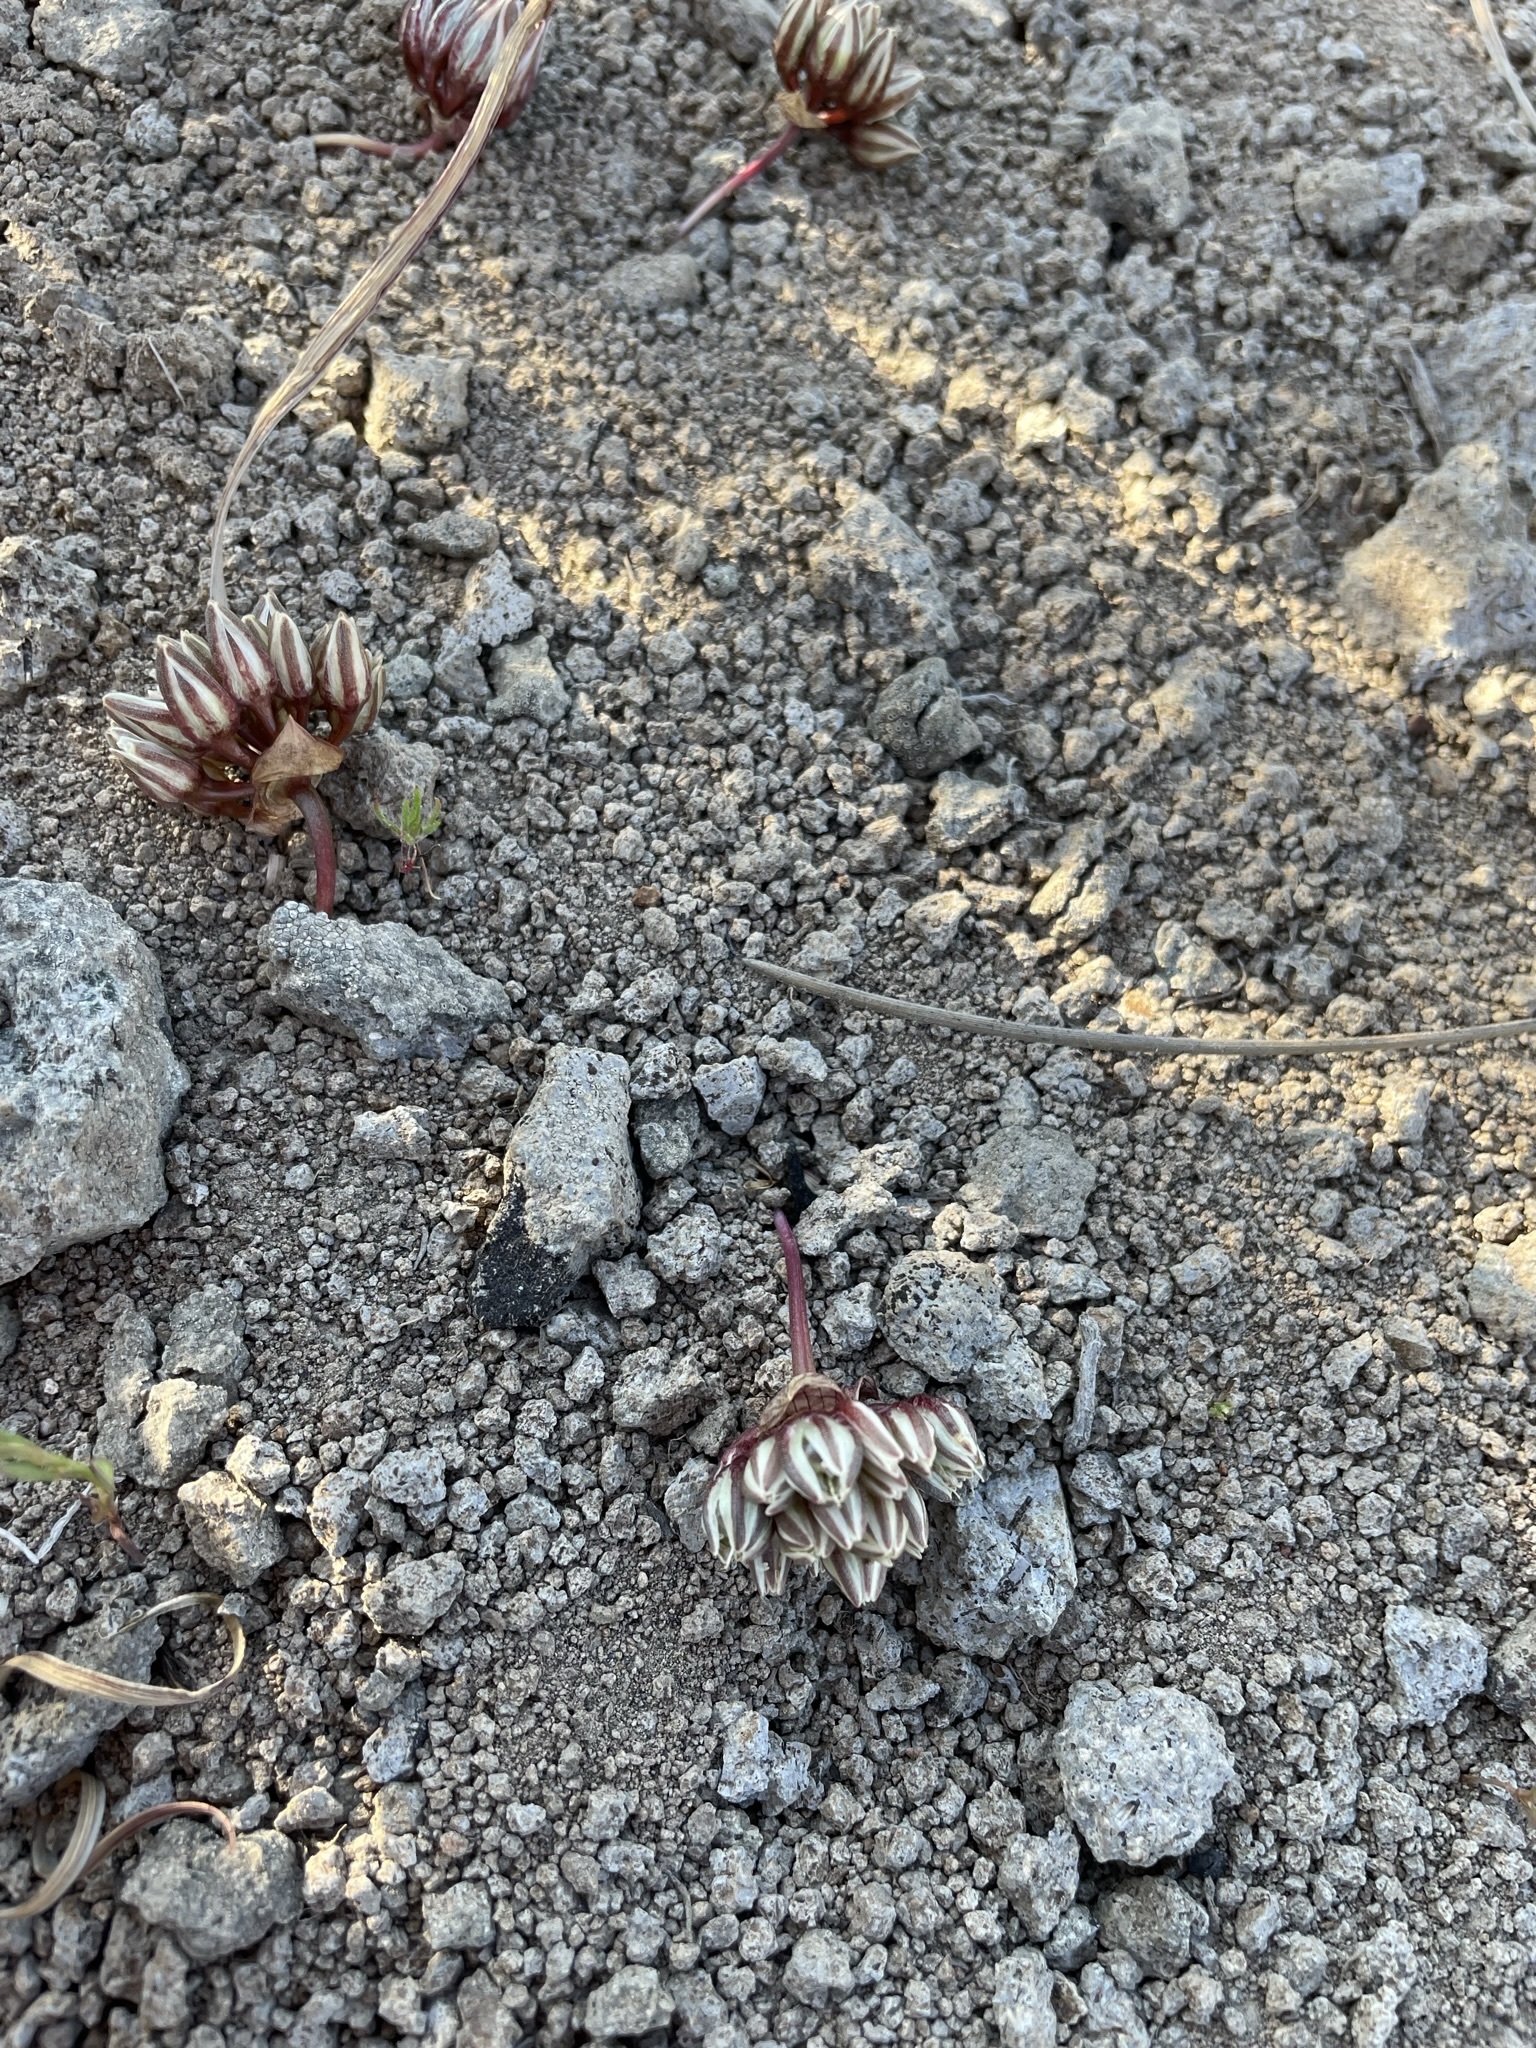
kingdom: Plantae
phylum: Tracheophyta
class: Liliopsida
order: Asparagales
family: Amaryllidaceae
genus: Allium
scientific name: Allium obtusum
